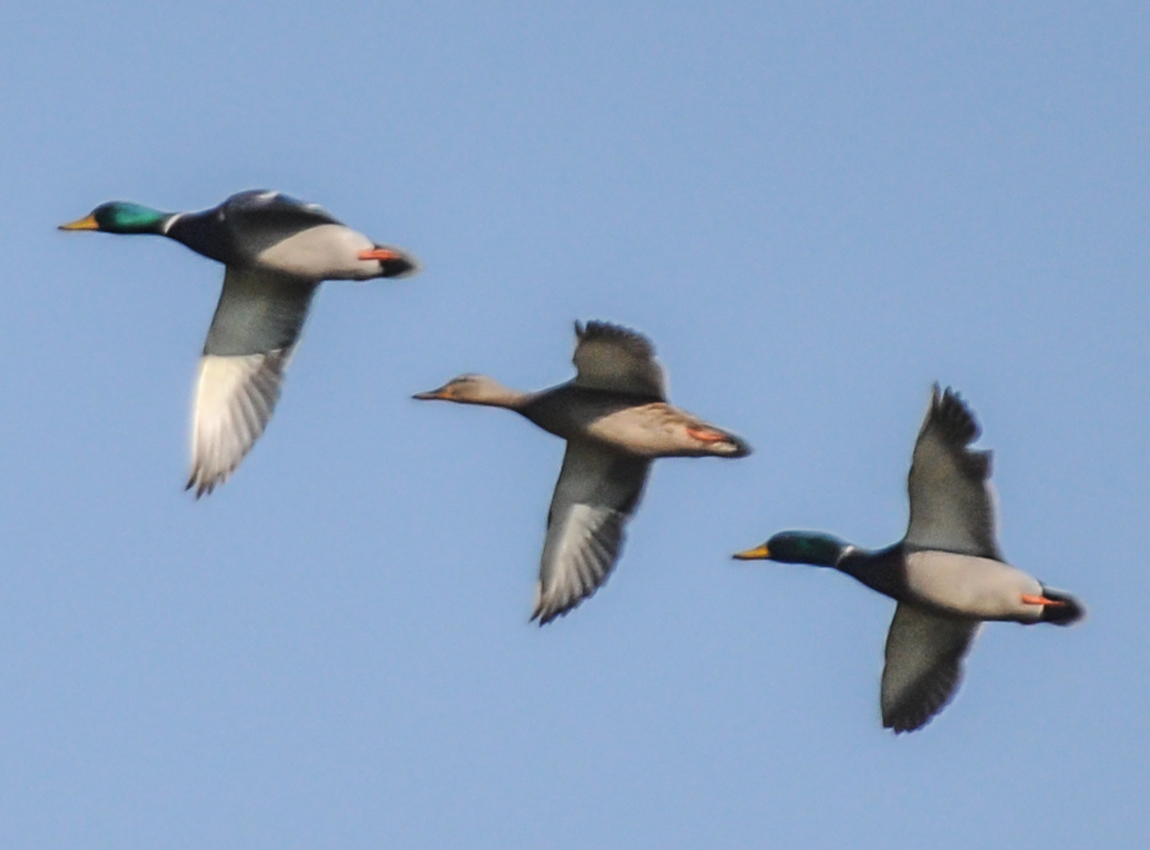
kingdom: Animalia
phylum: Chordata
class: Aves
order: Anseriformes
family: Anatidae
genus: Anas
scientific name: Anas platyrhynchos
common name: Mallard
